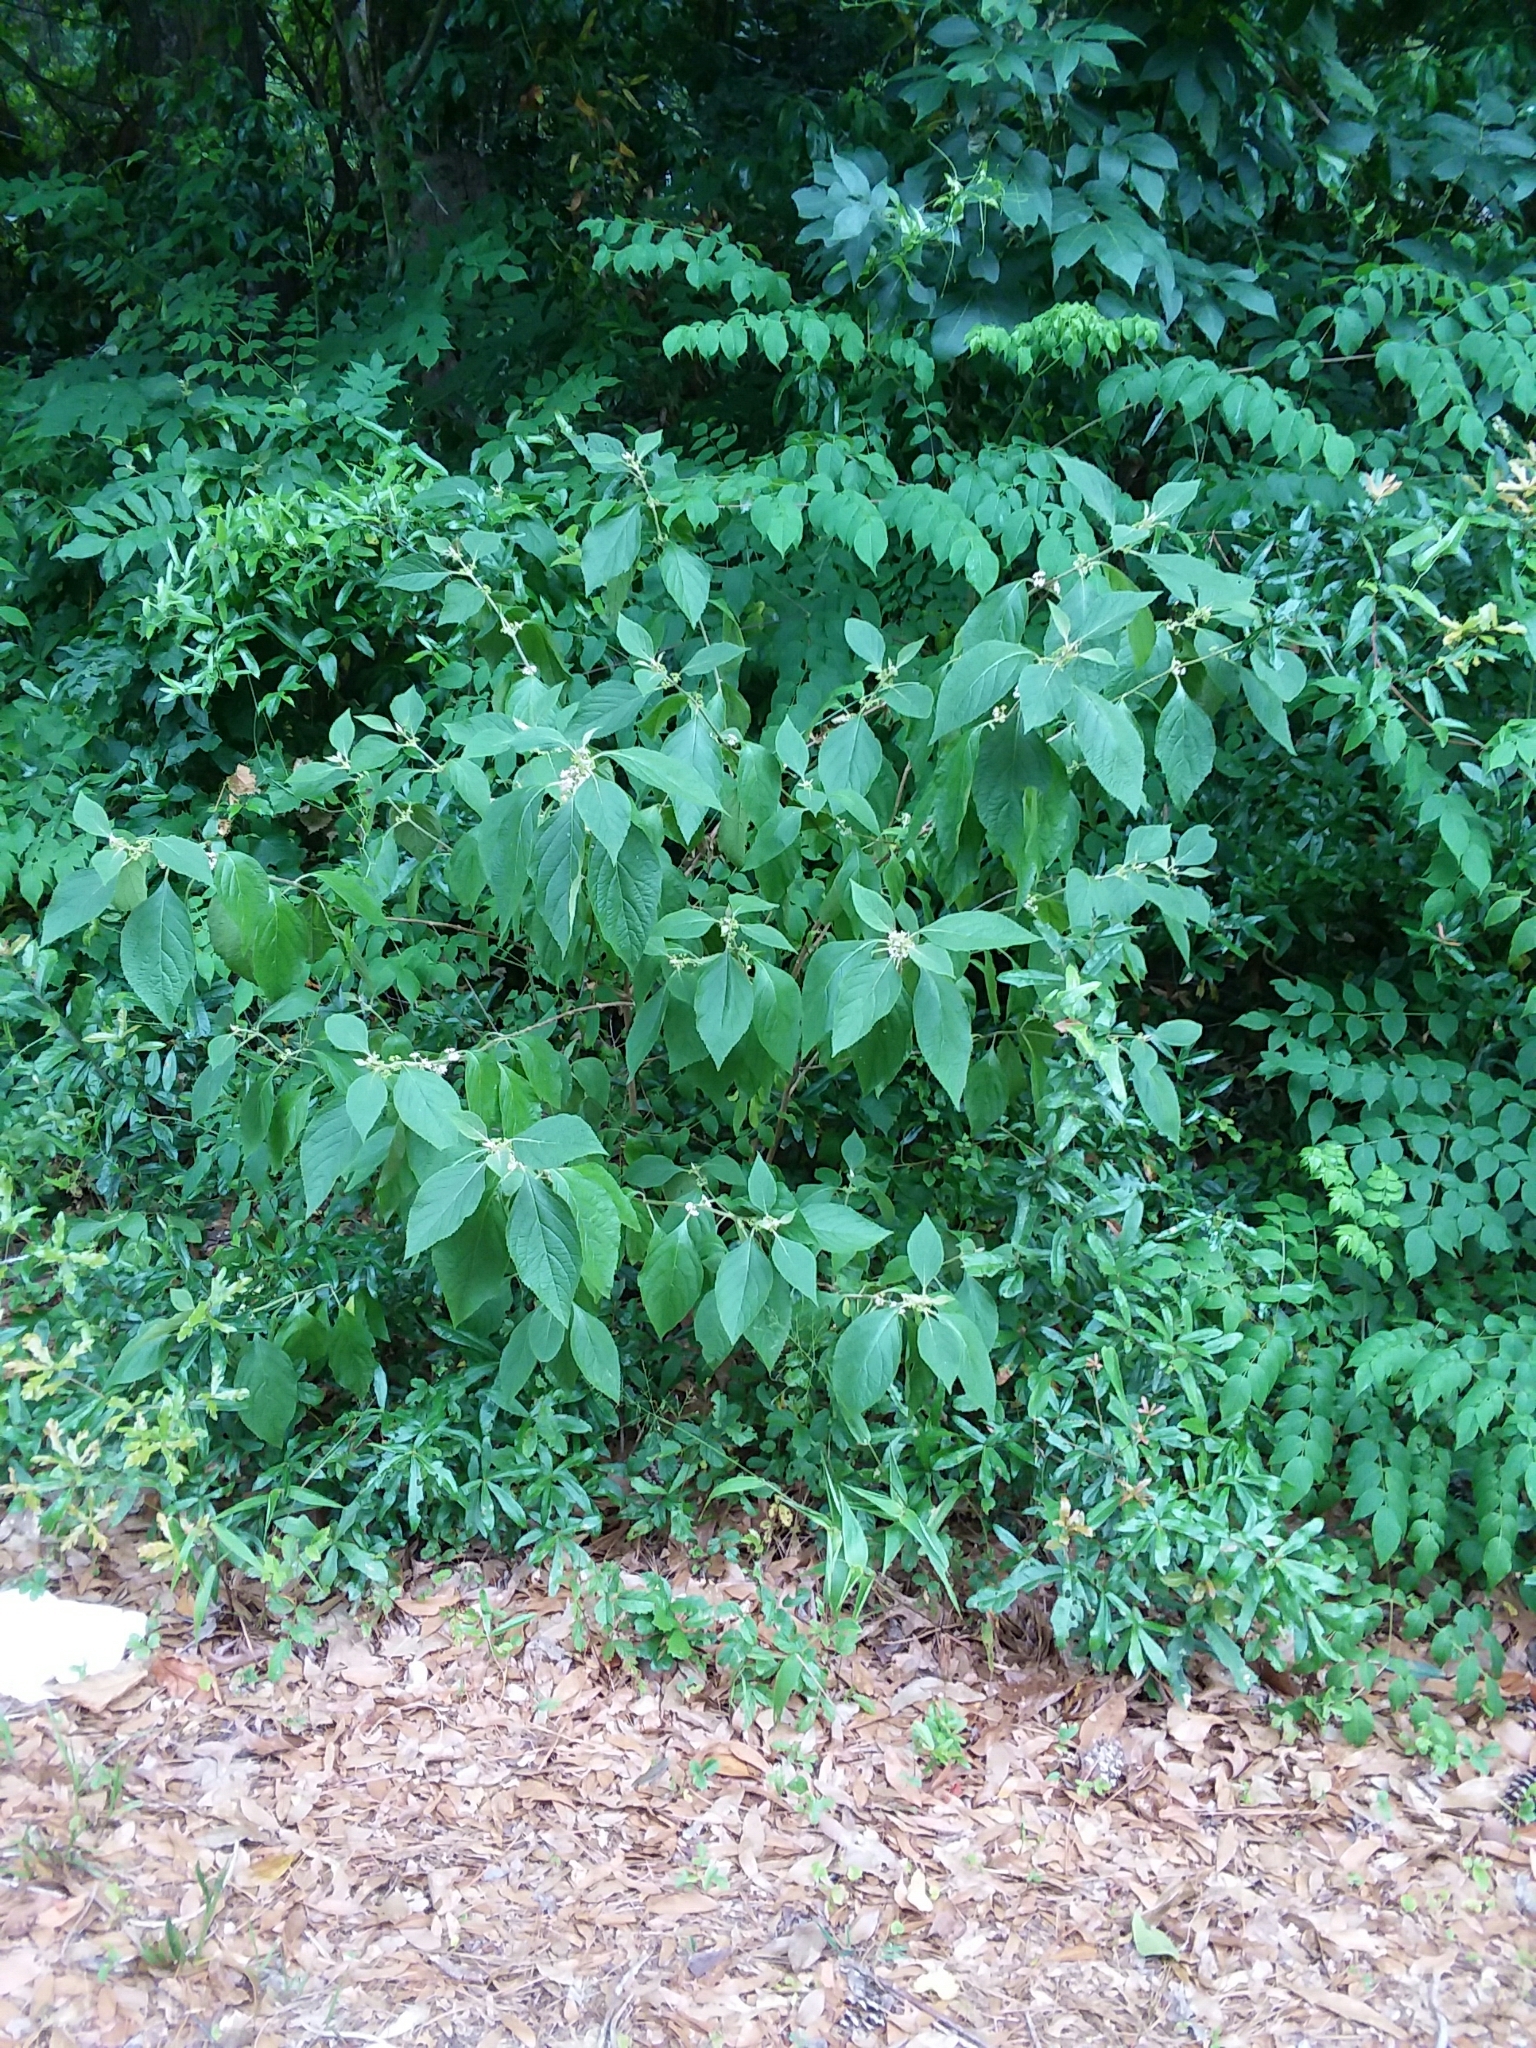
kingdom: Plantae
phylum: Tracheophyta
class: Magnoliopsida
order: Lamiales
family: Lamiaceae
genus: Callicarpa
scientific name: Callicarpa americana
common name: American beautyberry
